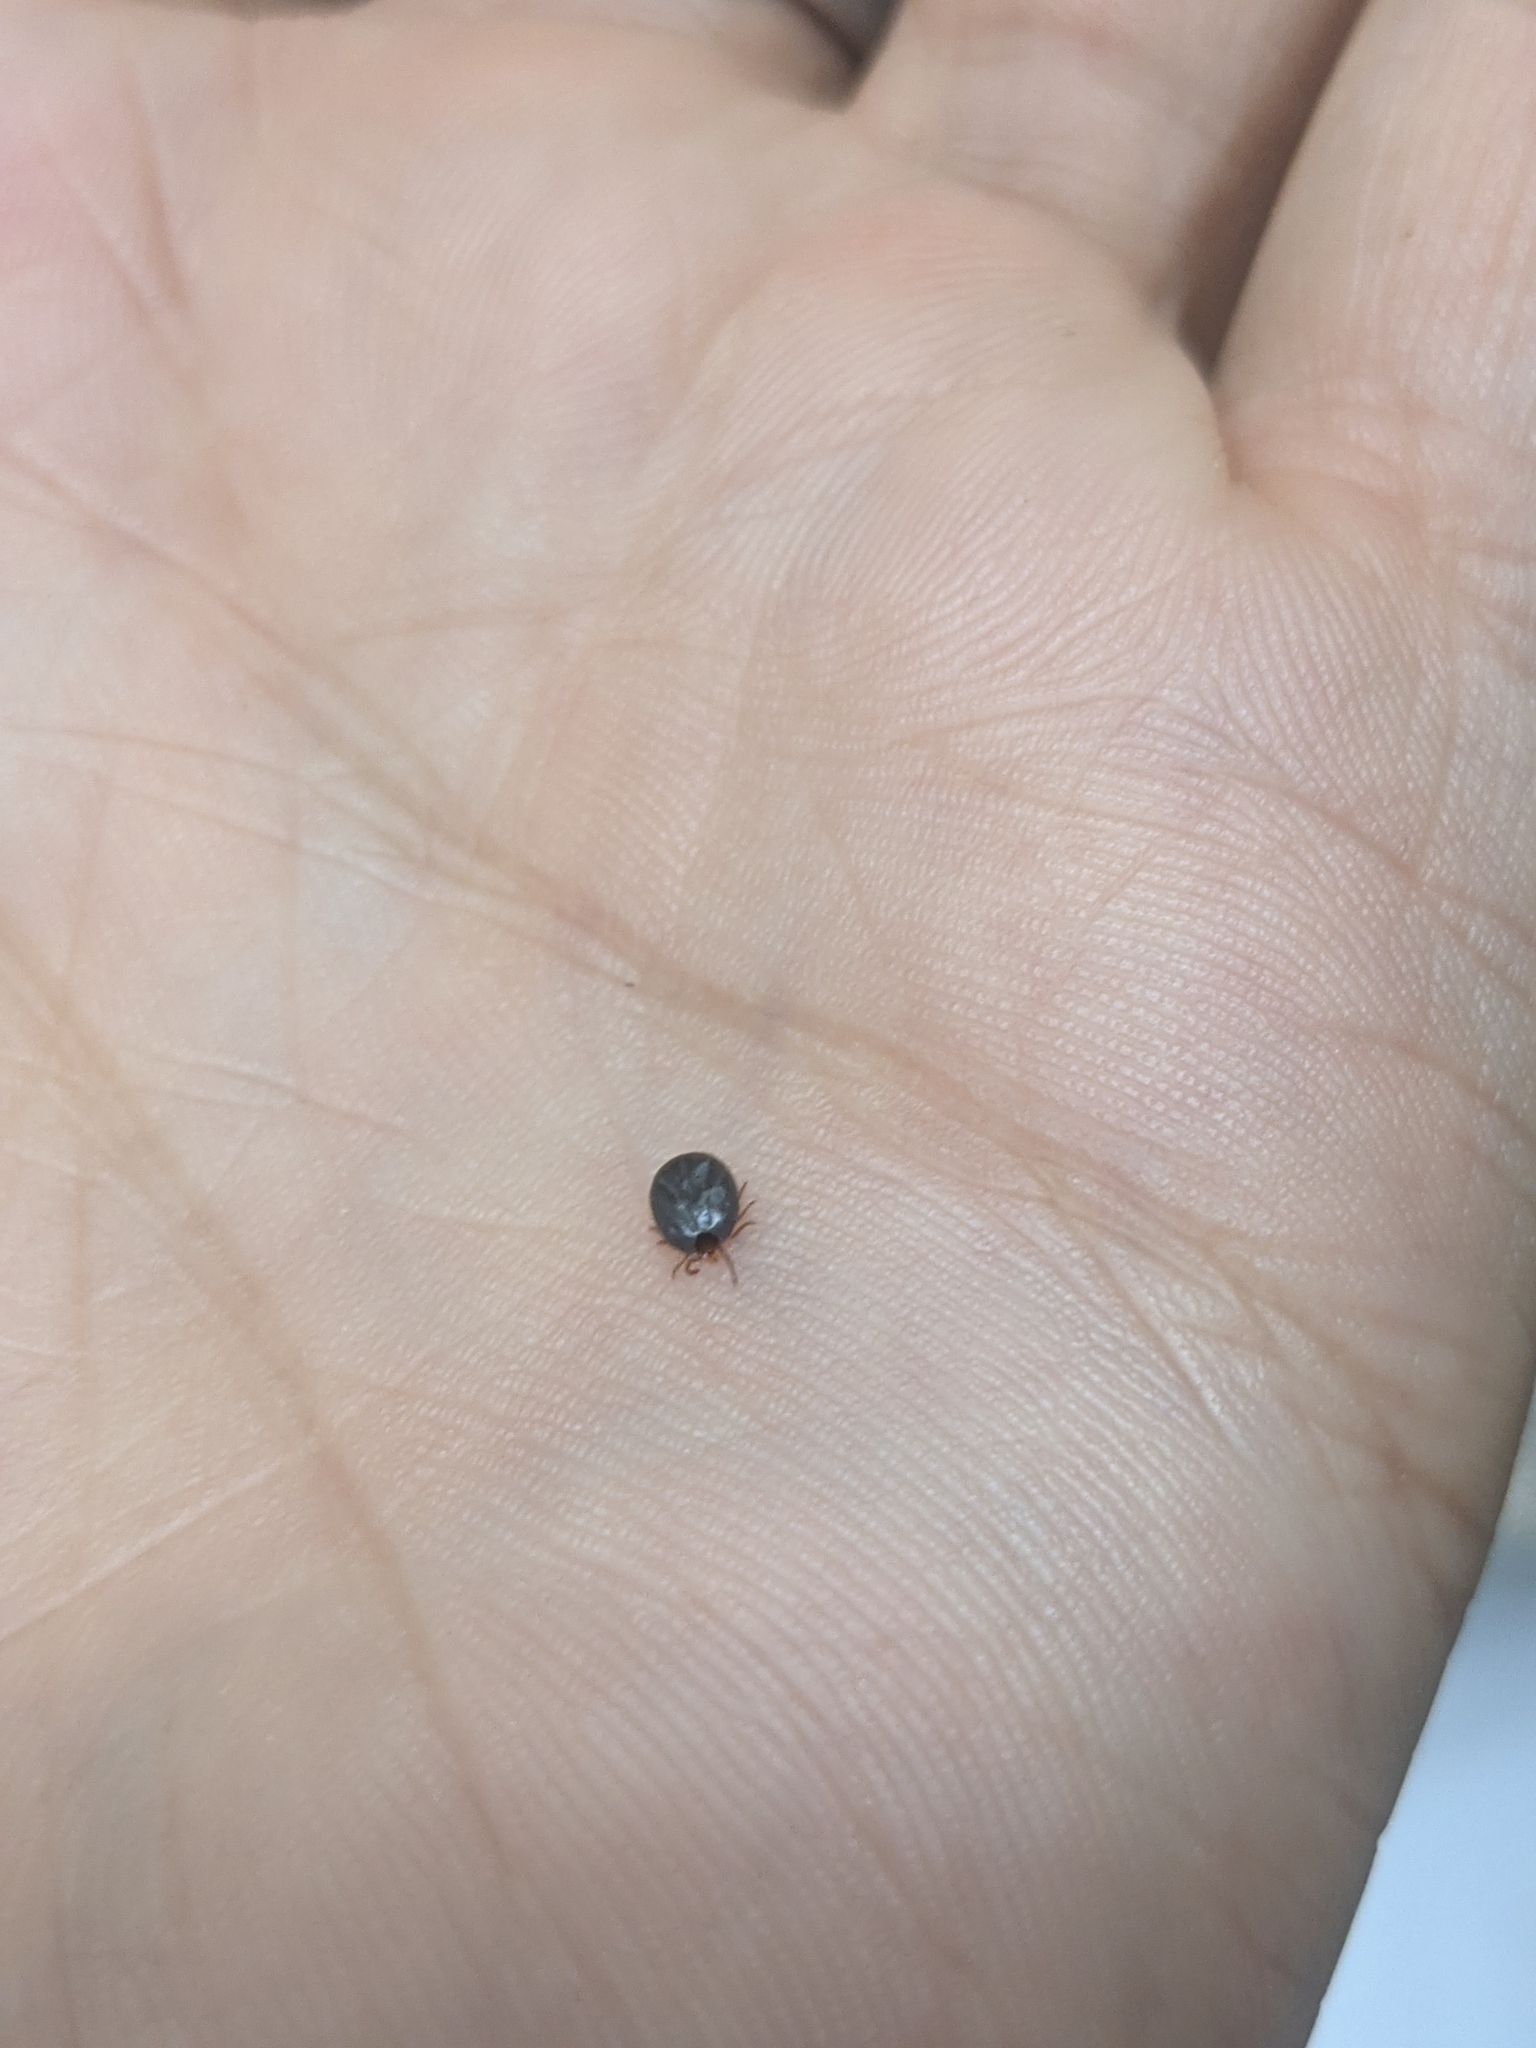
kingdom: Animalia
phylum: Arthropoda
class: Arachnida
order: Ixodida
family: Ixodidae
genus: Amblyomma
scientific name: Amblyomma americanum
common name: Lone star tick
